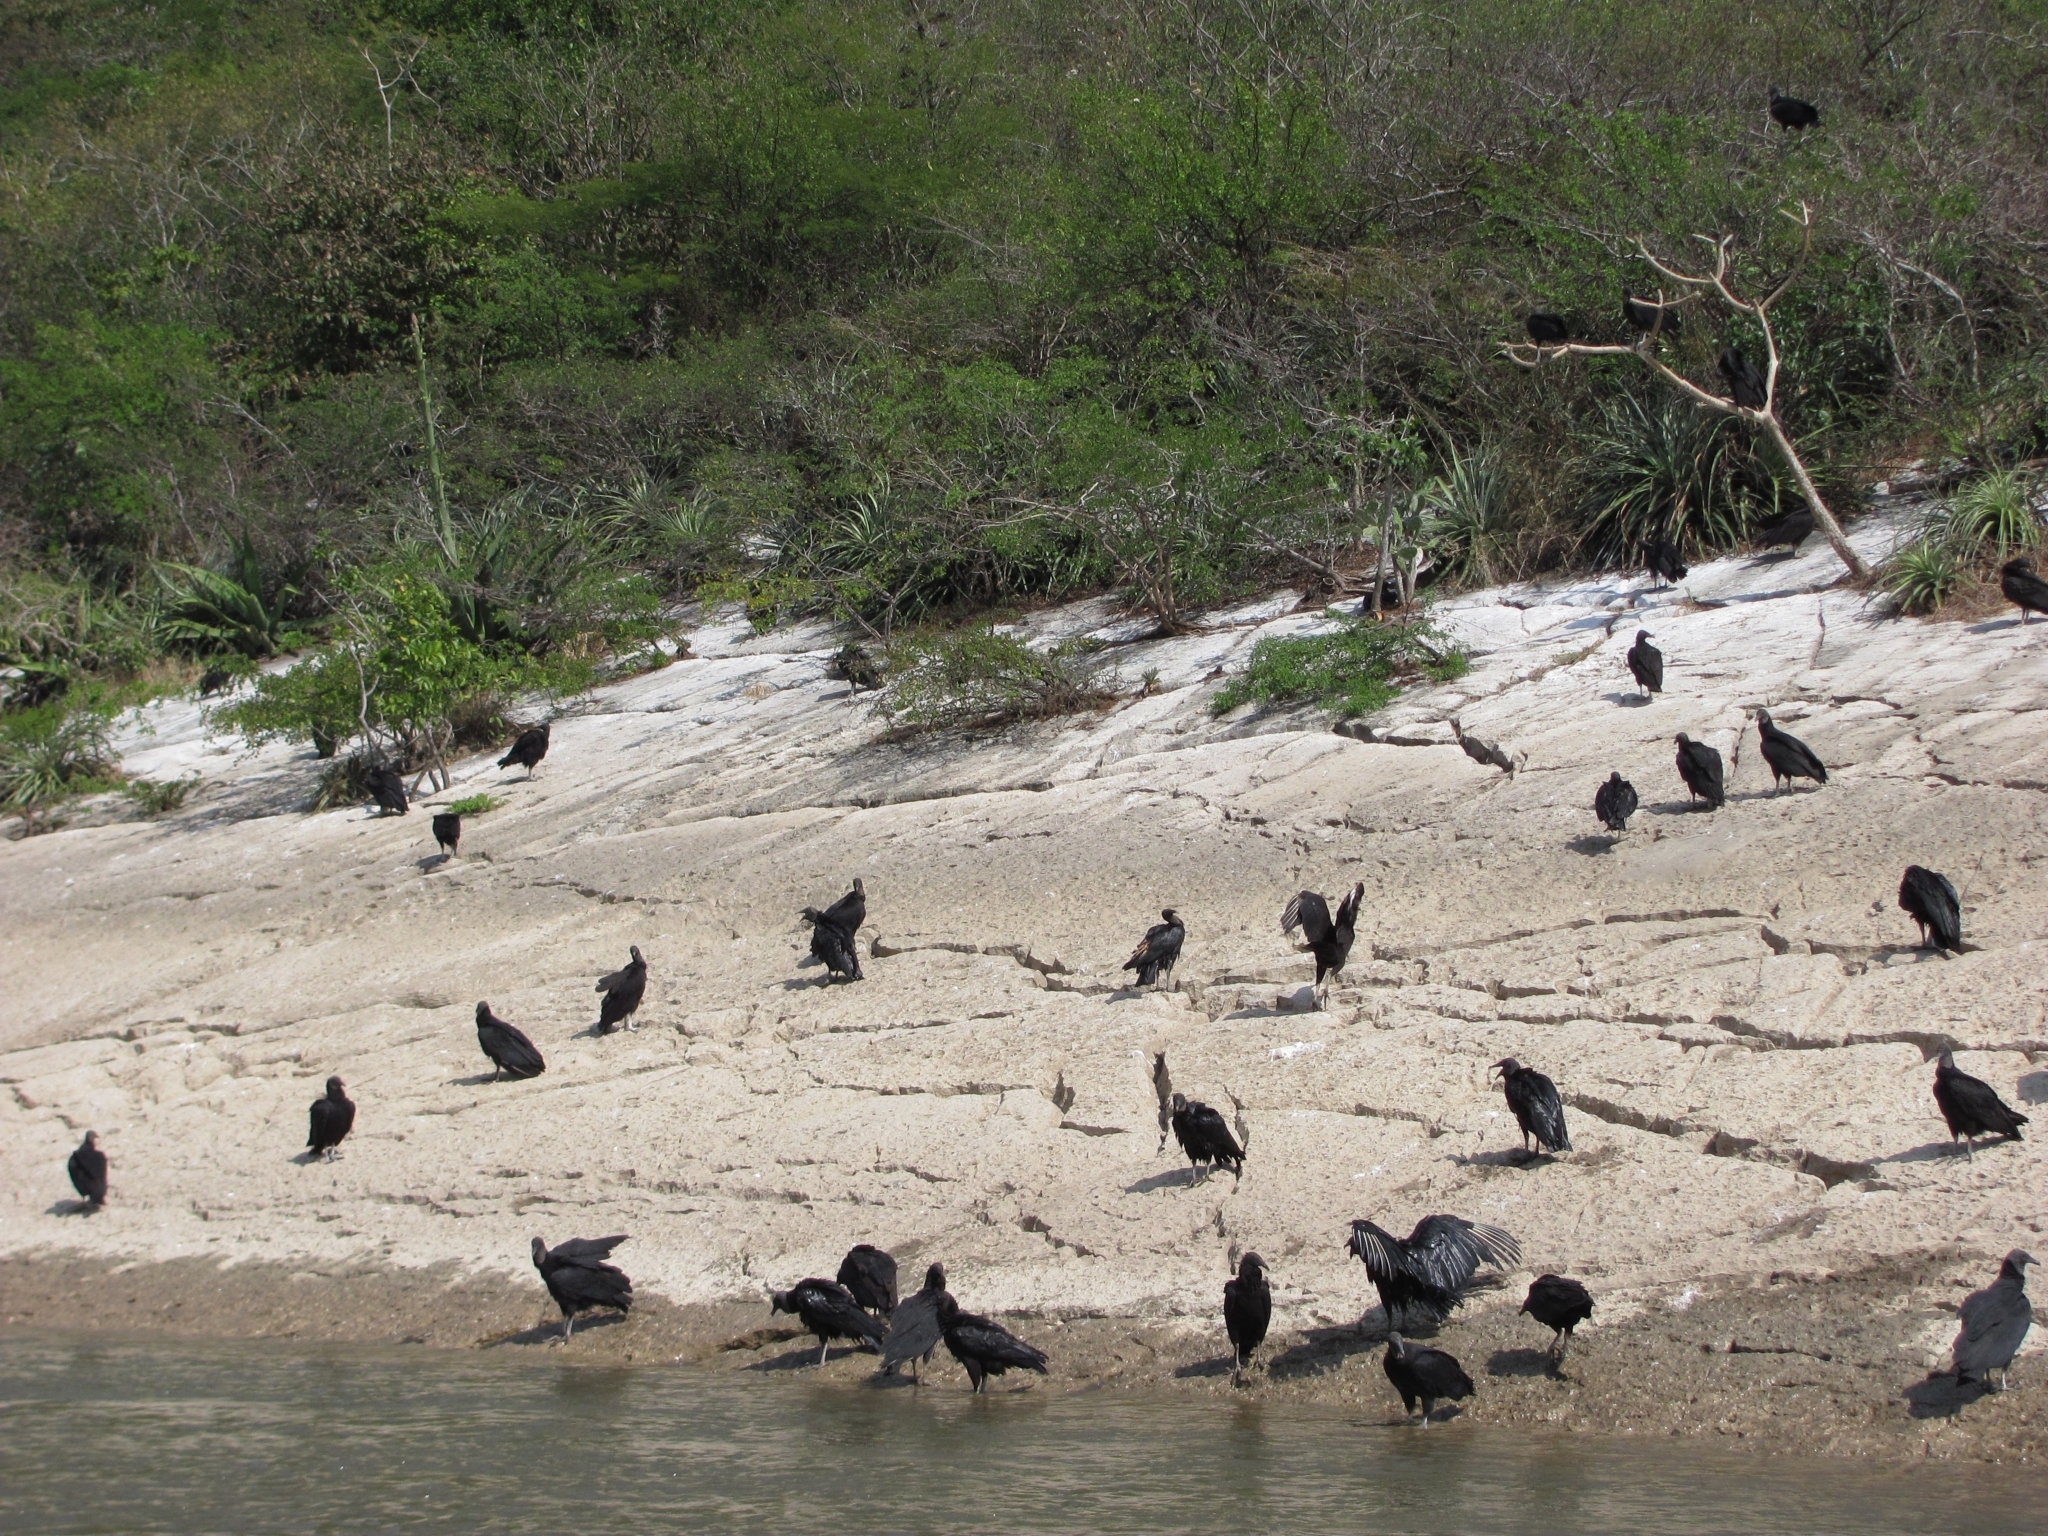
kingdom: Animalia
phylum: Chordata
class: Aves
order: Accipitriformes
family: Cathartidae
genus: Coragyps
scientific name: Coragyps atratus
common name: Black vulture
